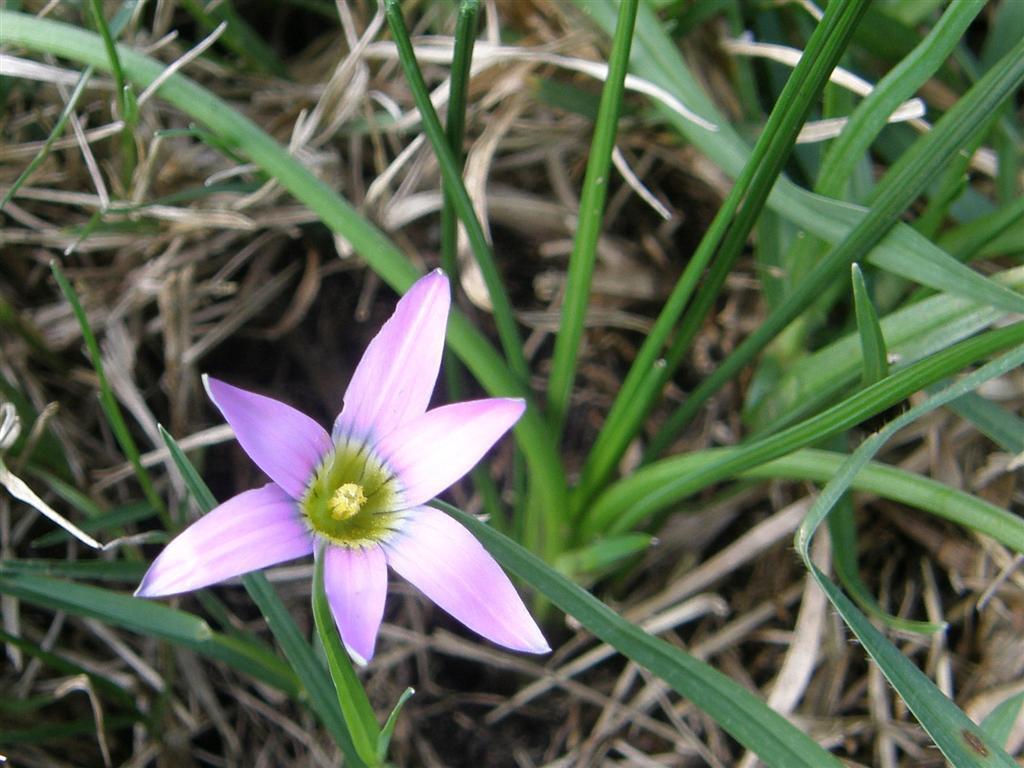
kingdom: Plantae
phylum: Tracheophyta
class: Liliopsida
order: Asparagales
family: Iridaceae
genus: Romulea
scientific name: Romulea rosea
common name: Oniongrass
